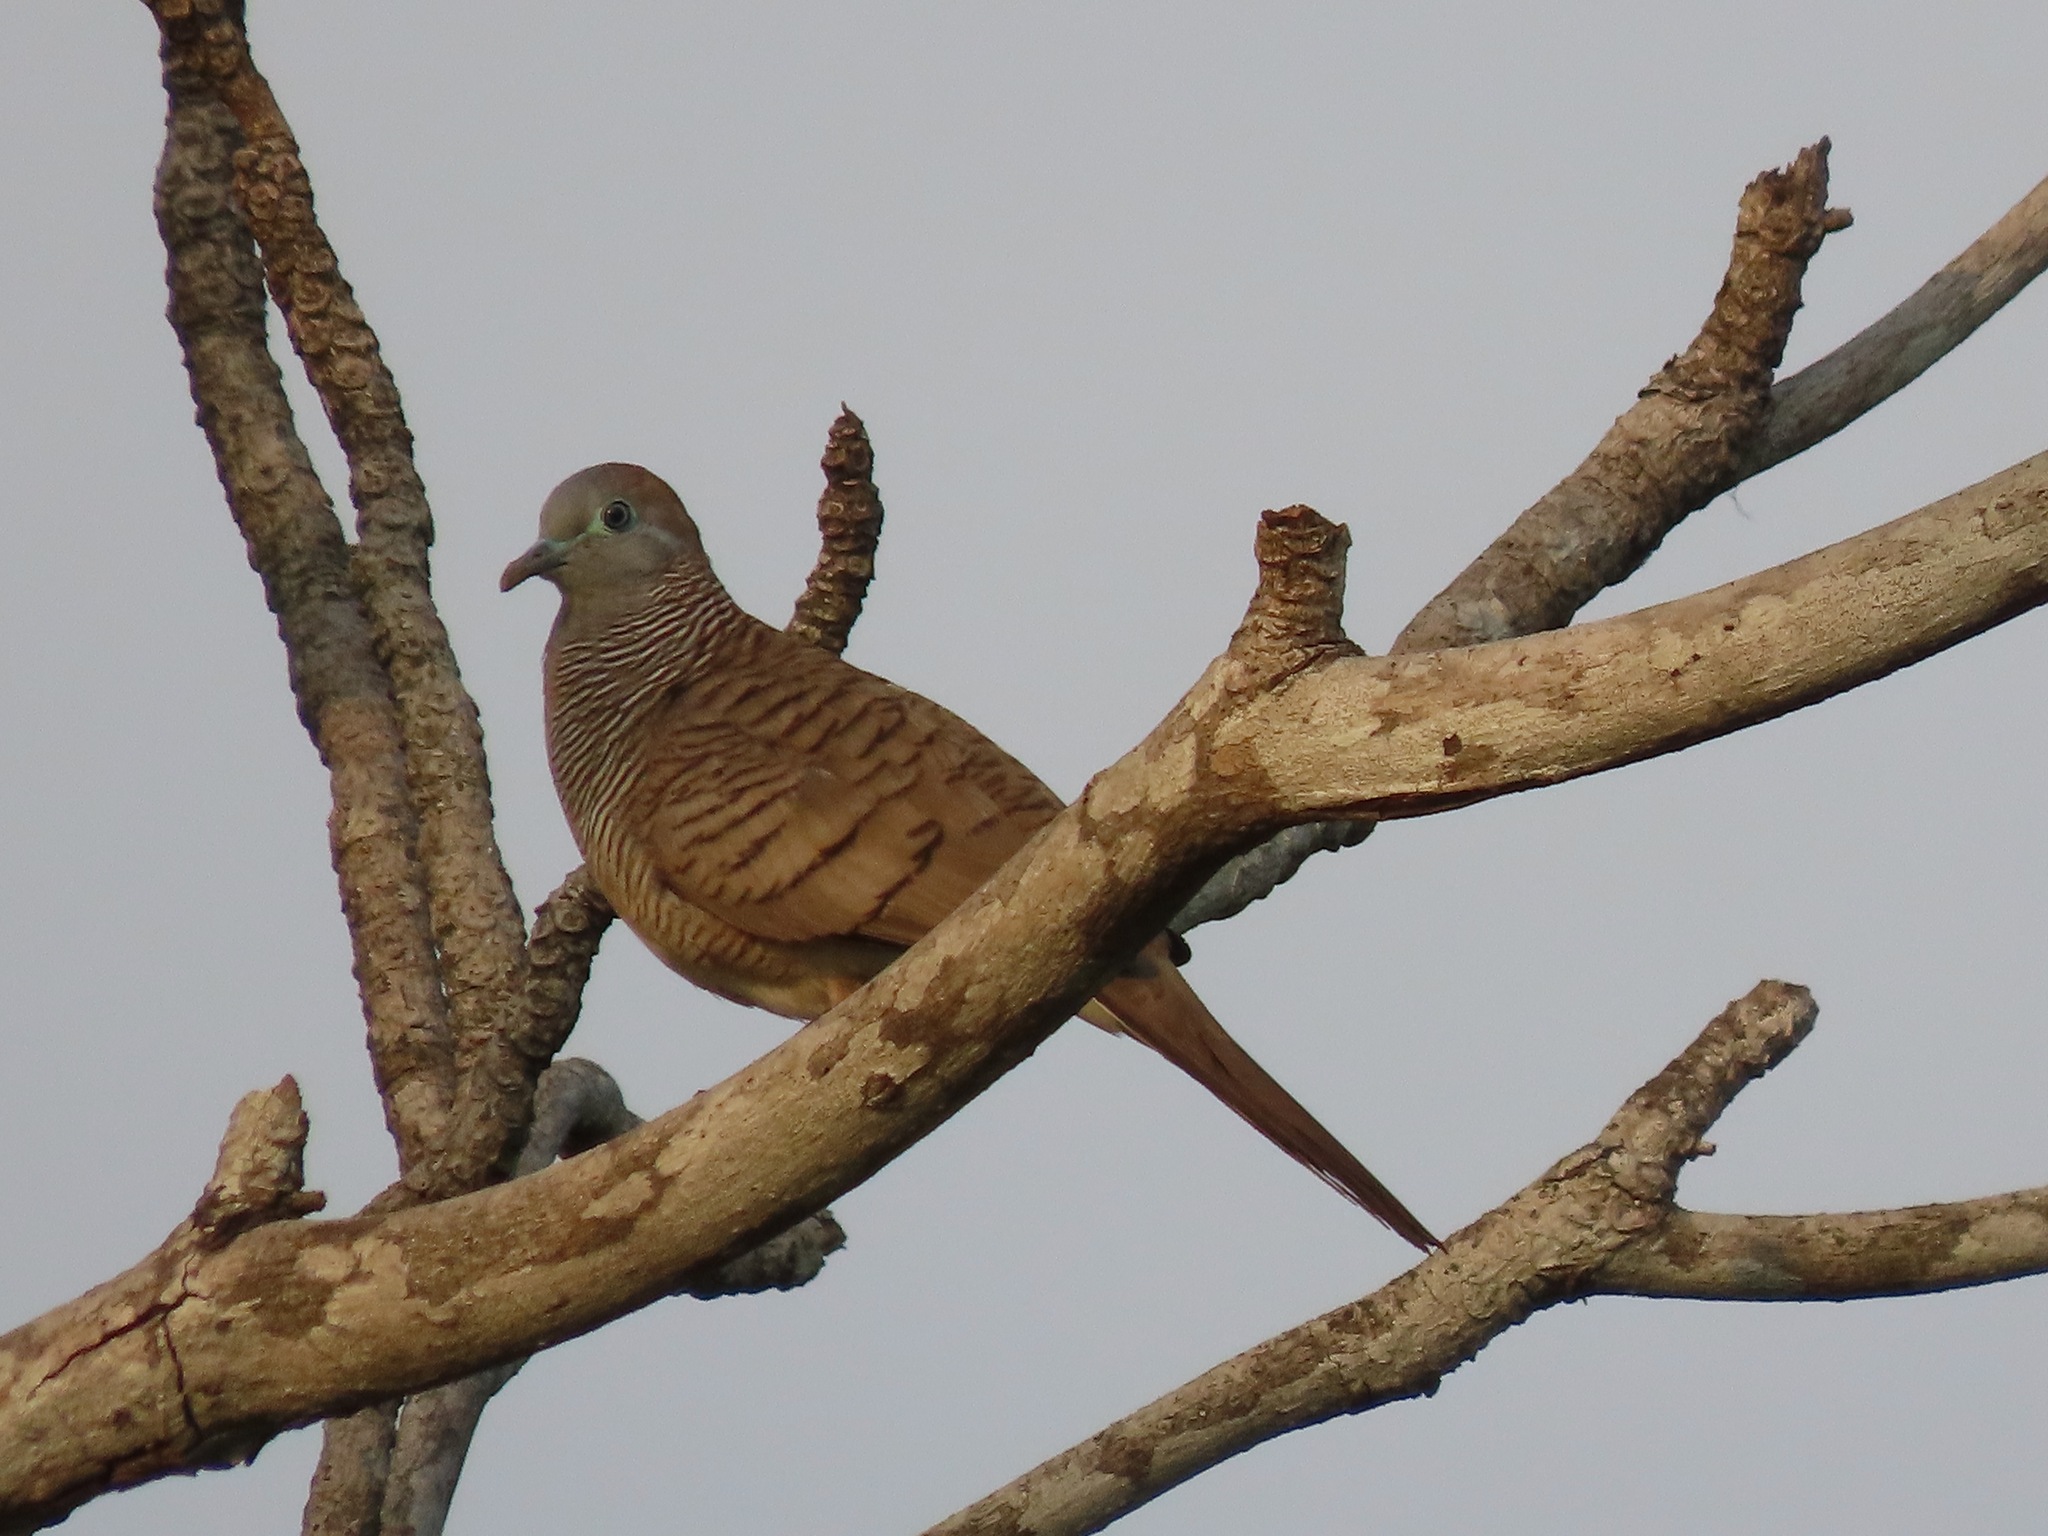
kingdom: Animalia
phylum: Chordata
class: Aves
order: Columbiformes
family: Columbidae
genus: Geopelia
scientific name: Geopelia striata
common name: Zebra dove
